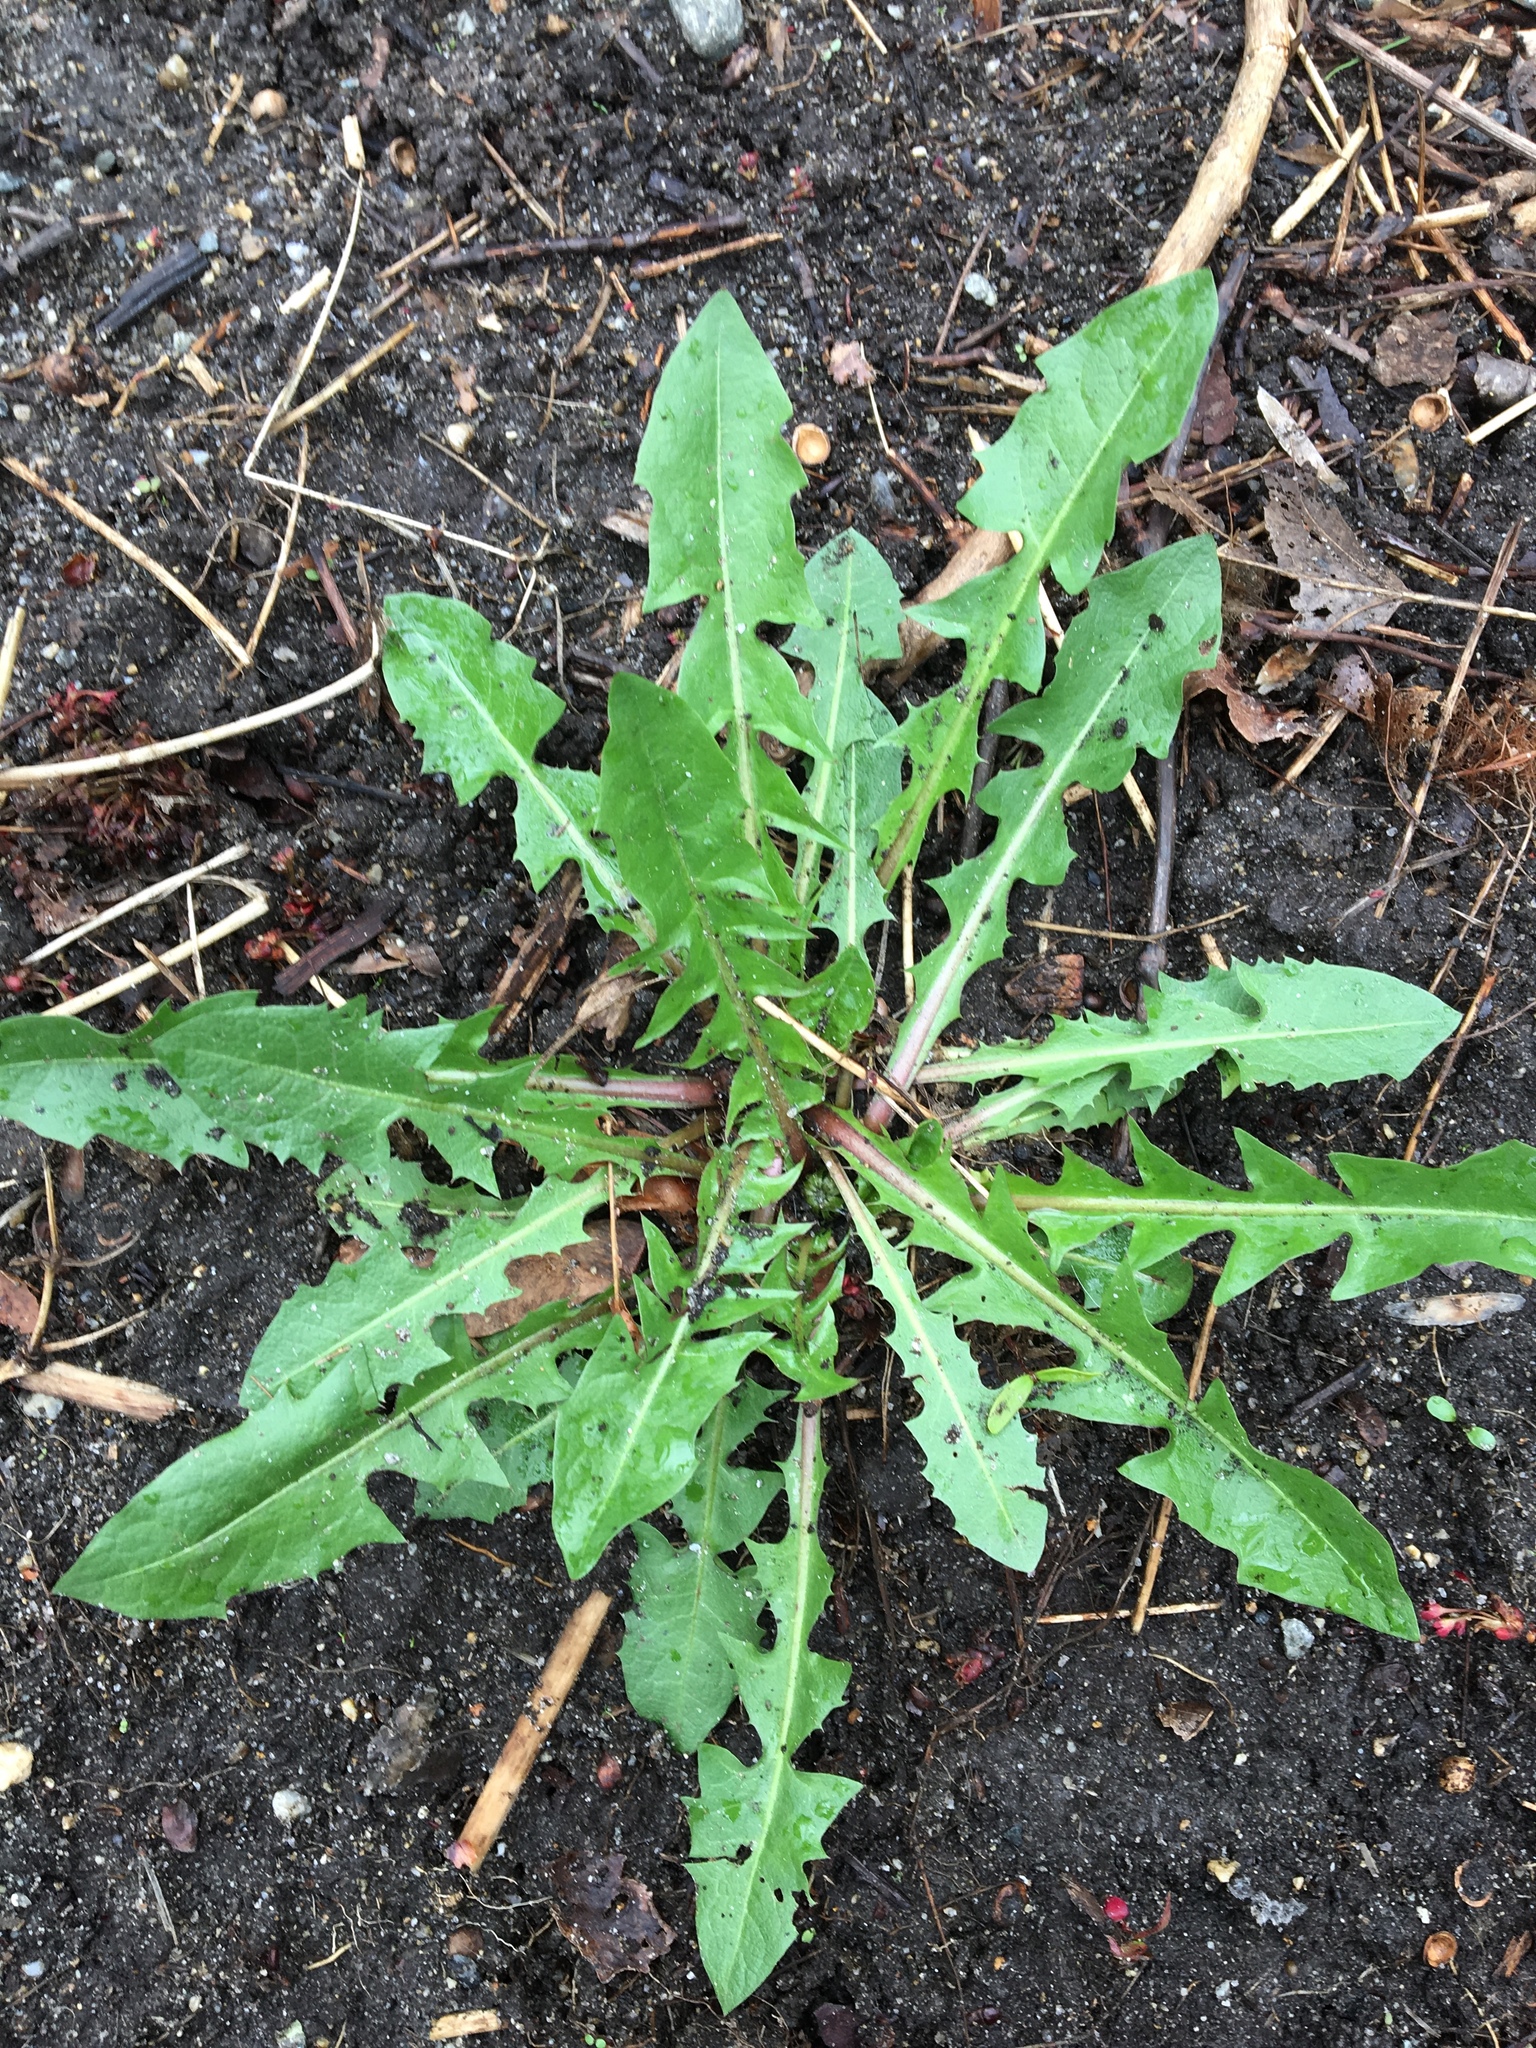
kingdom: Plantae
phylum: Tracheophyta
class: Magnoliopsida
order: Asterales
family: Asteraceae
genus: Taraxacum
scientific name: Taraxacum officinale
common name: Common dandelion
